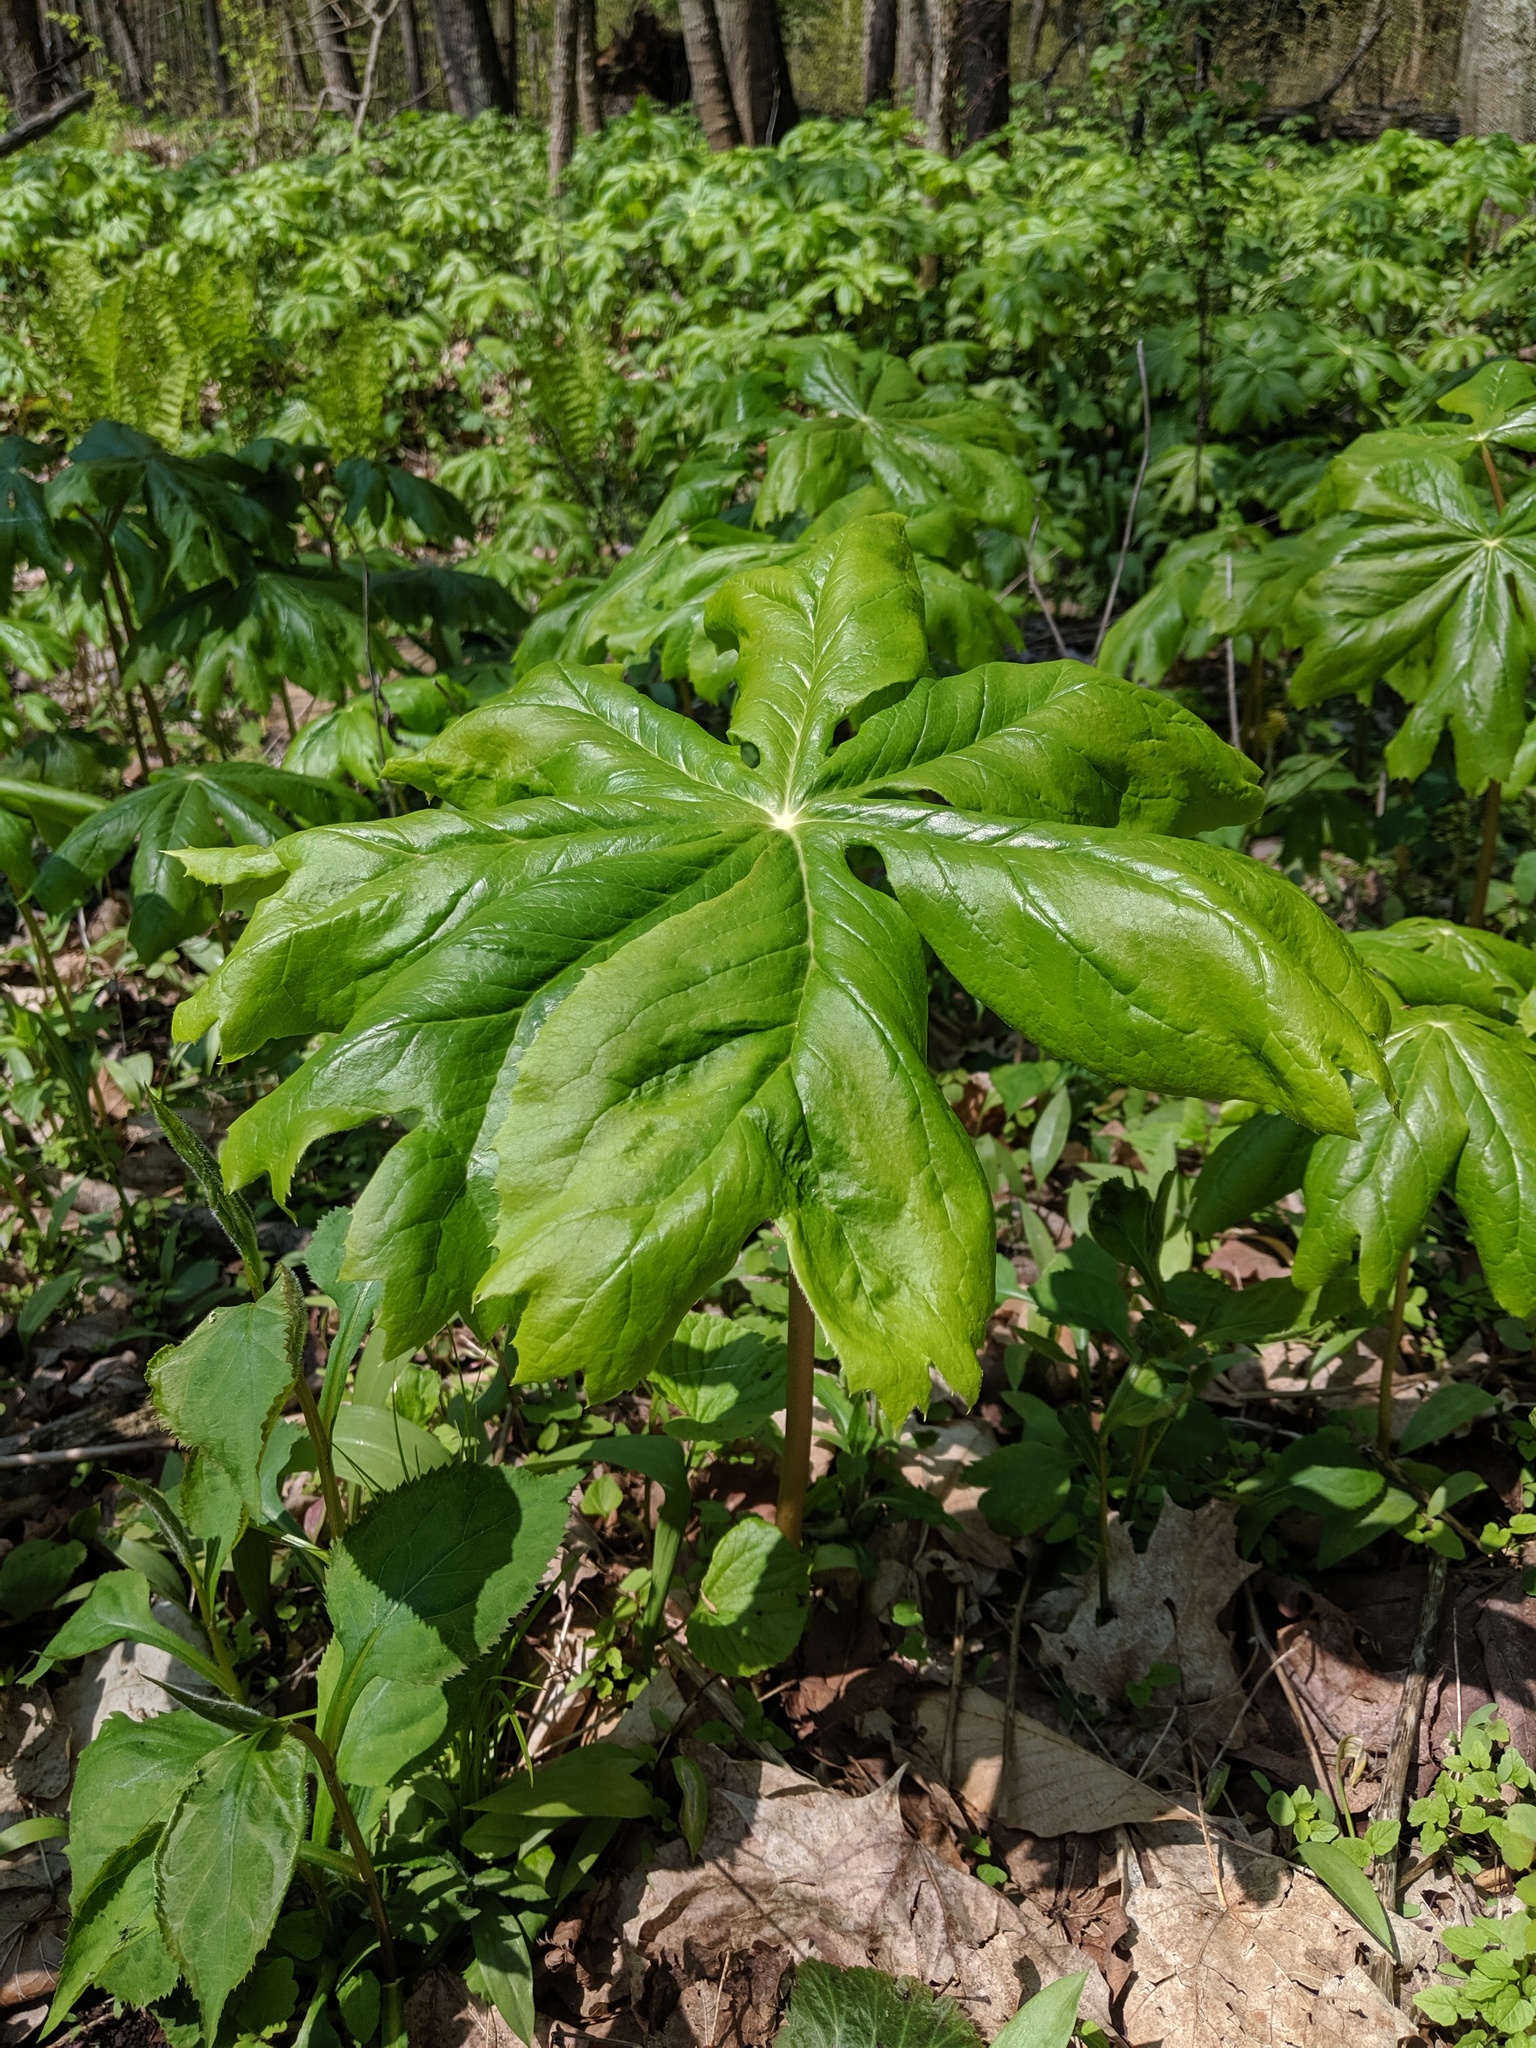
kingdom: Plantae
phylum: Tracheophyta
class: Magnoliopsida
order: Ranunculales
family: Berberidaceae
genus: Podophyllum
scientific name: Podophyllum peltatum
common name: Wild mandrake
